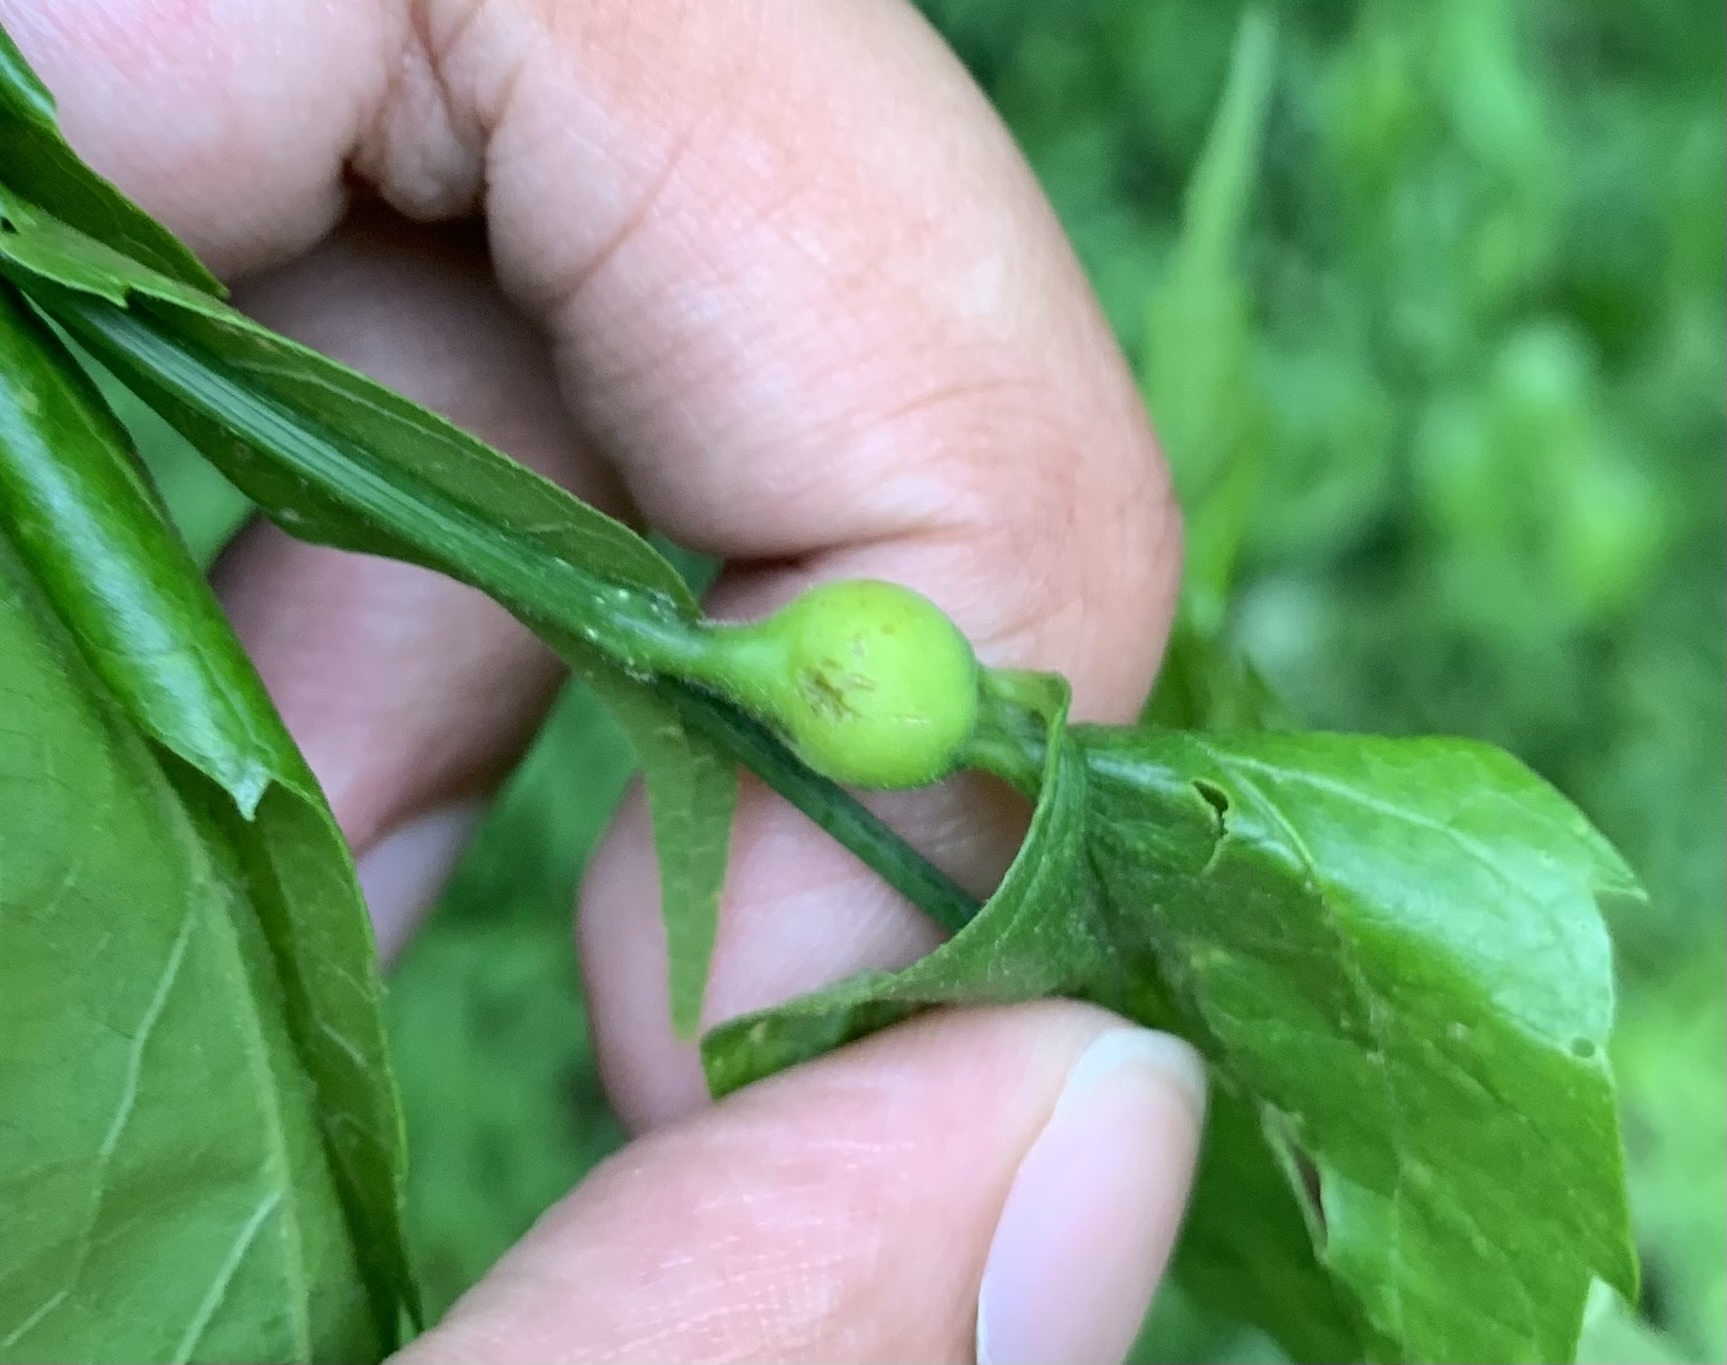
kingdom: Animalia
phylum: Arthropoda
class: Insecta
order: Hemiptera
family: Aphalaridae
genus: Pachypsylla
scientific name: Pachypsylla venusta
